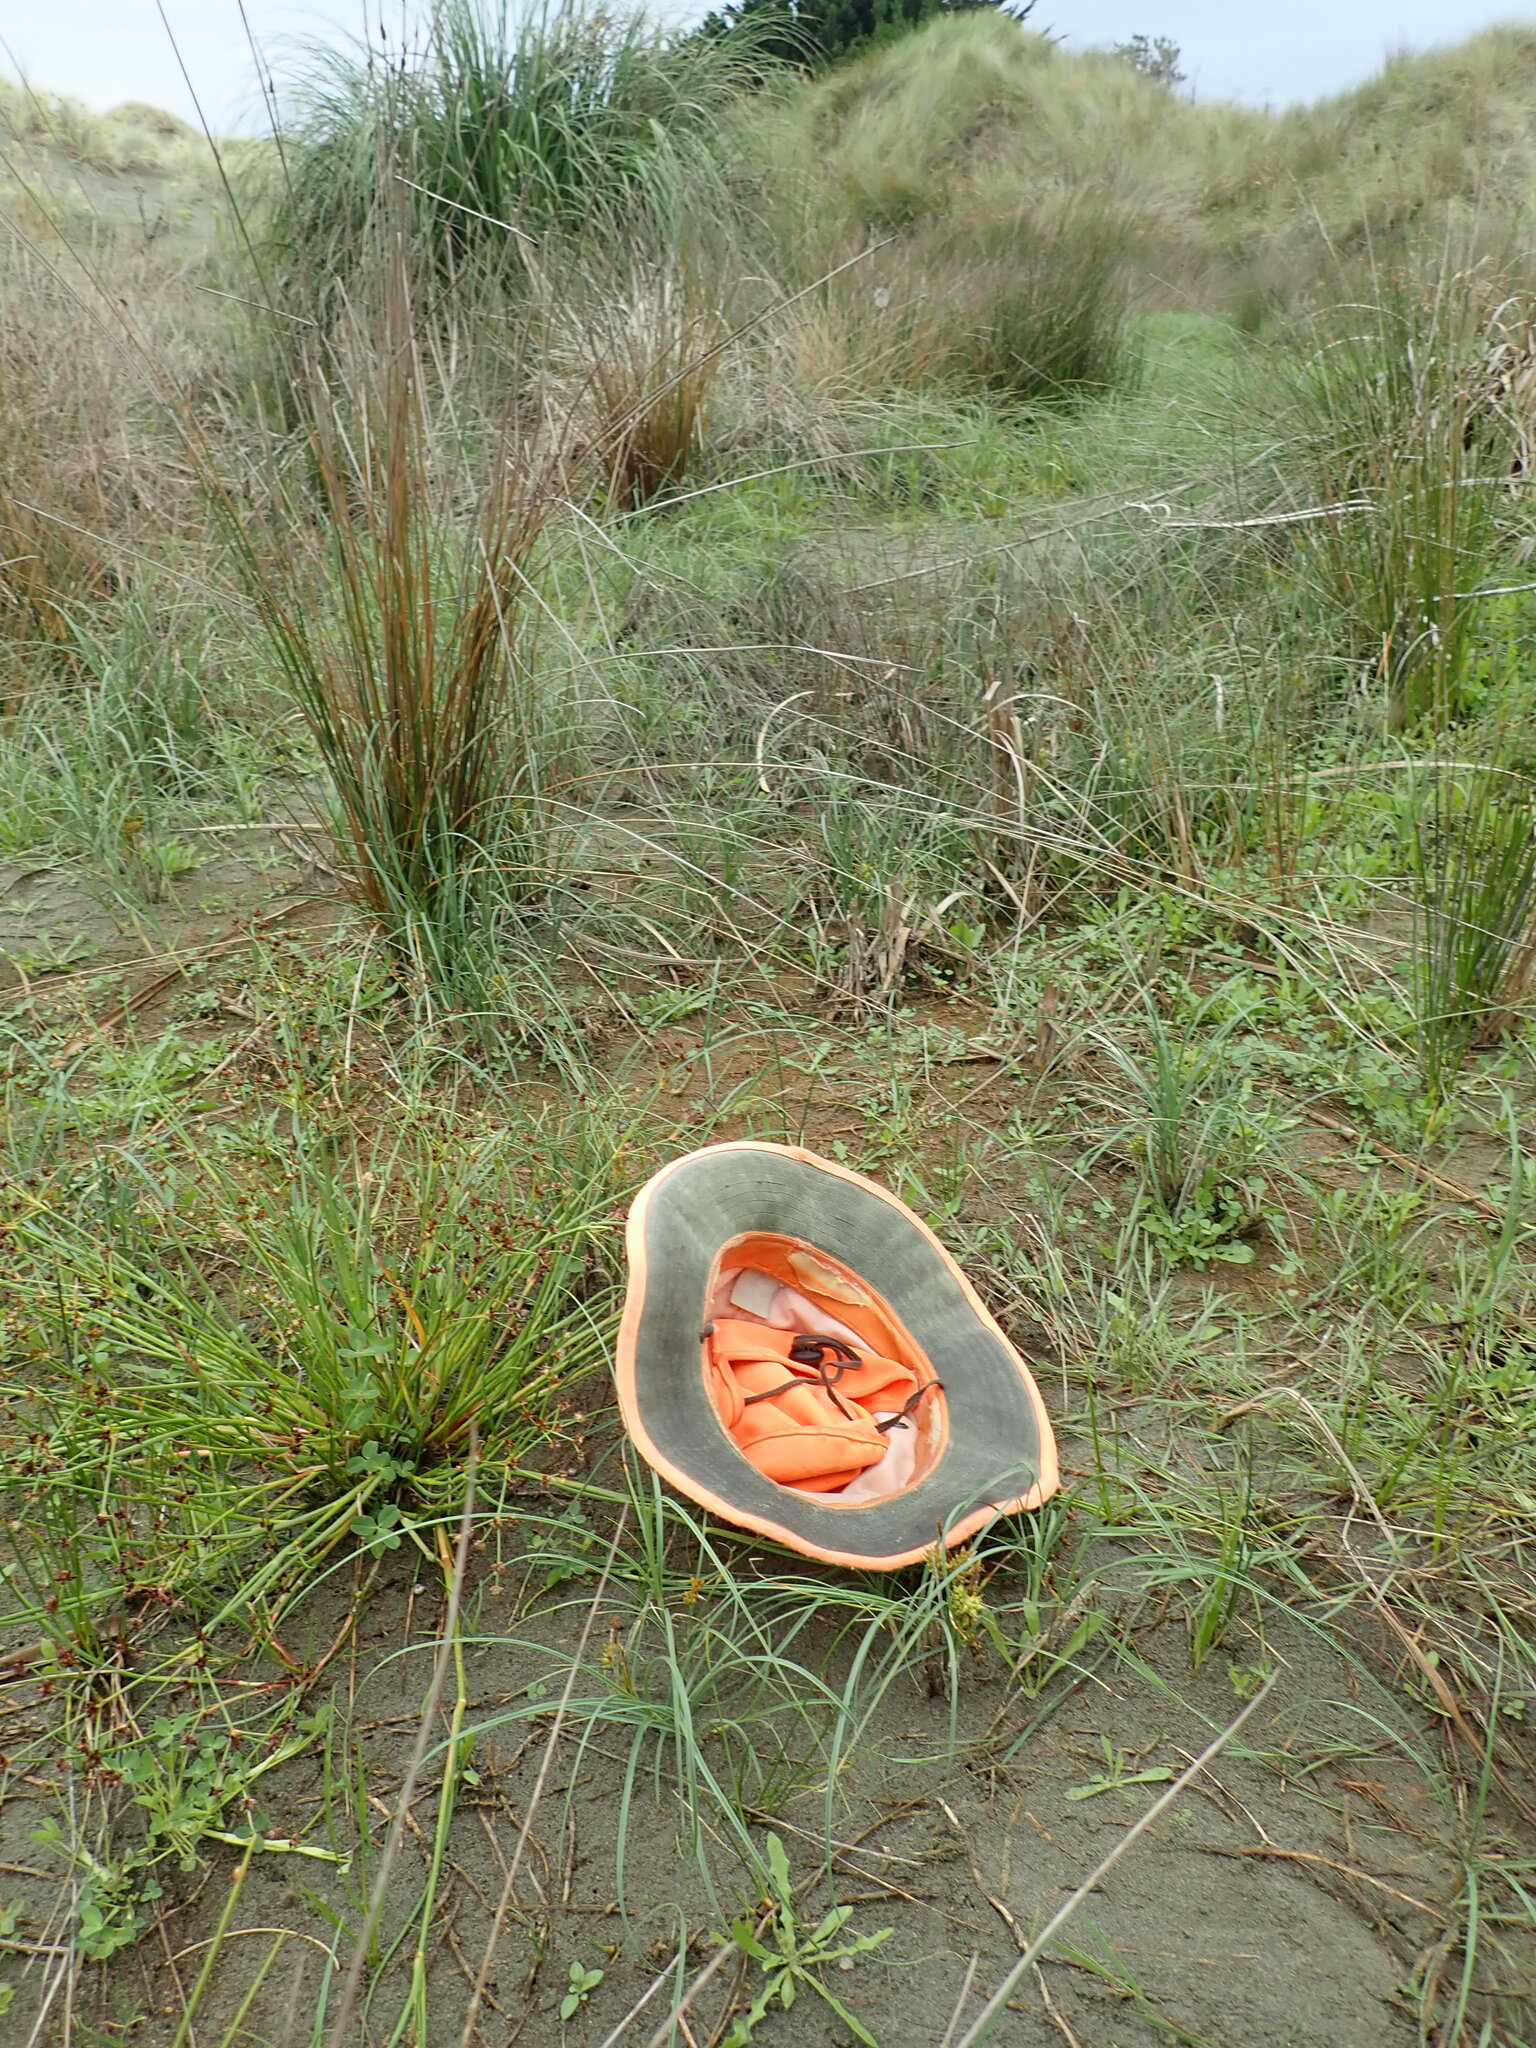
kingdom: Plantae
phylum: Tracheophyta
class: Liliopsida
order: Poales
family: Juncaceae
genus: Juncus
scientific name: Juncus articulatus
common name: Jointed rush
